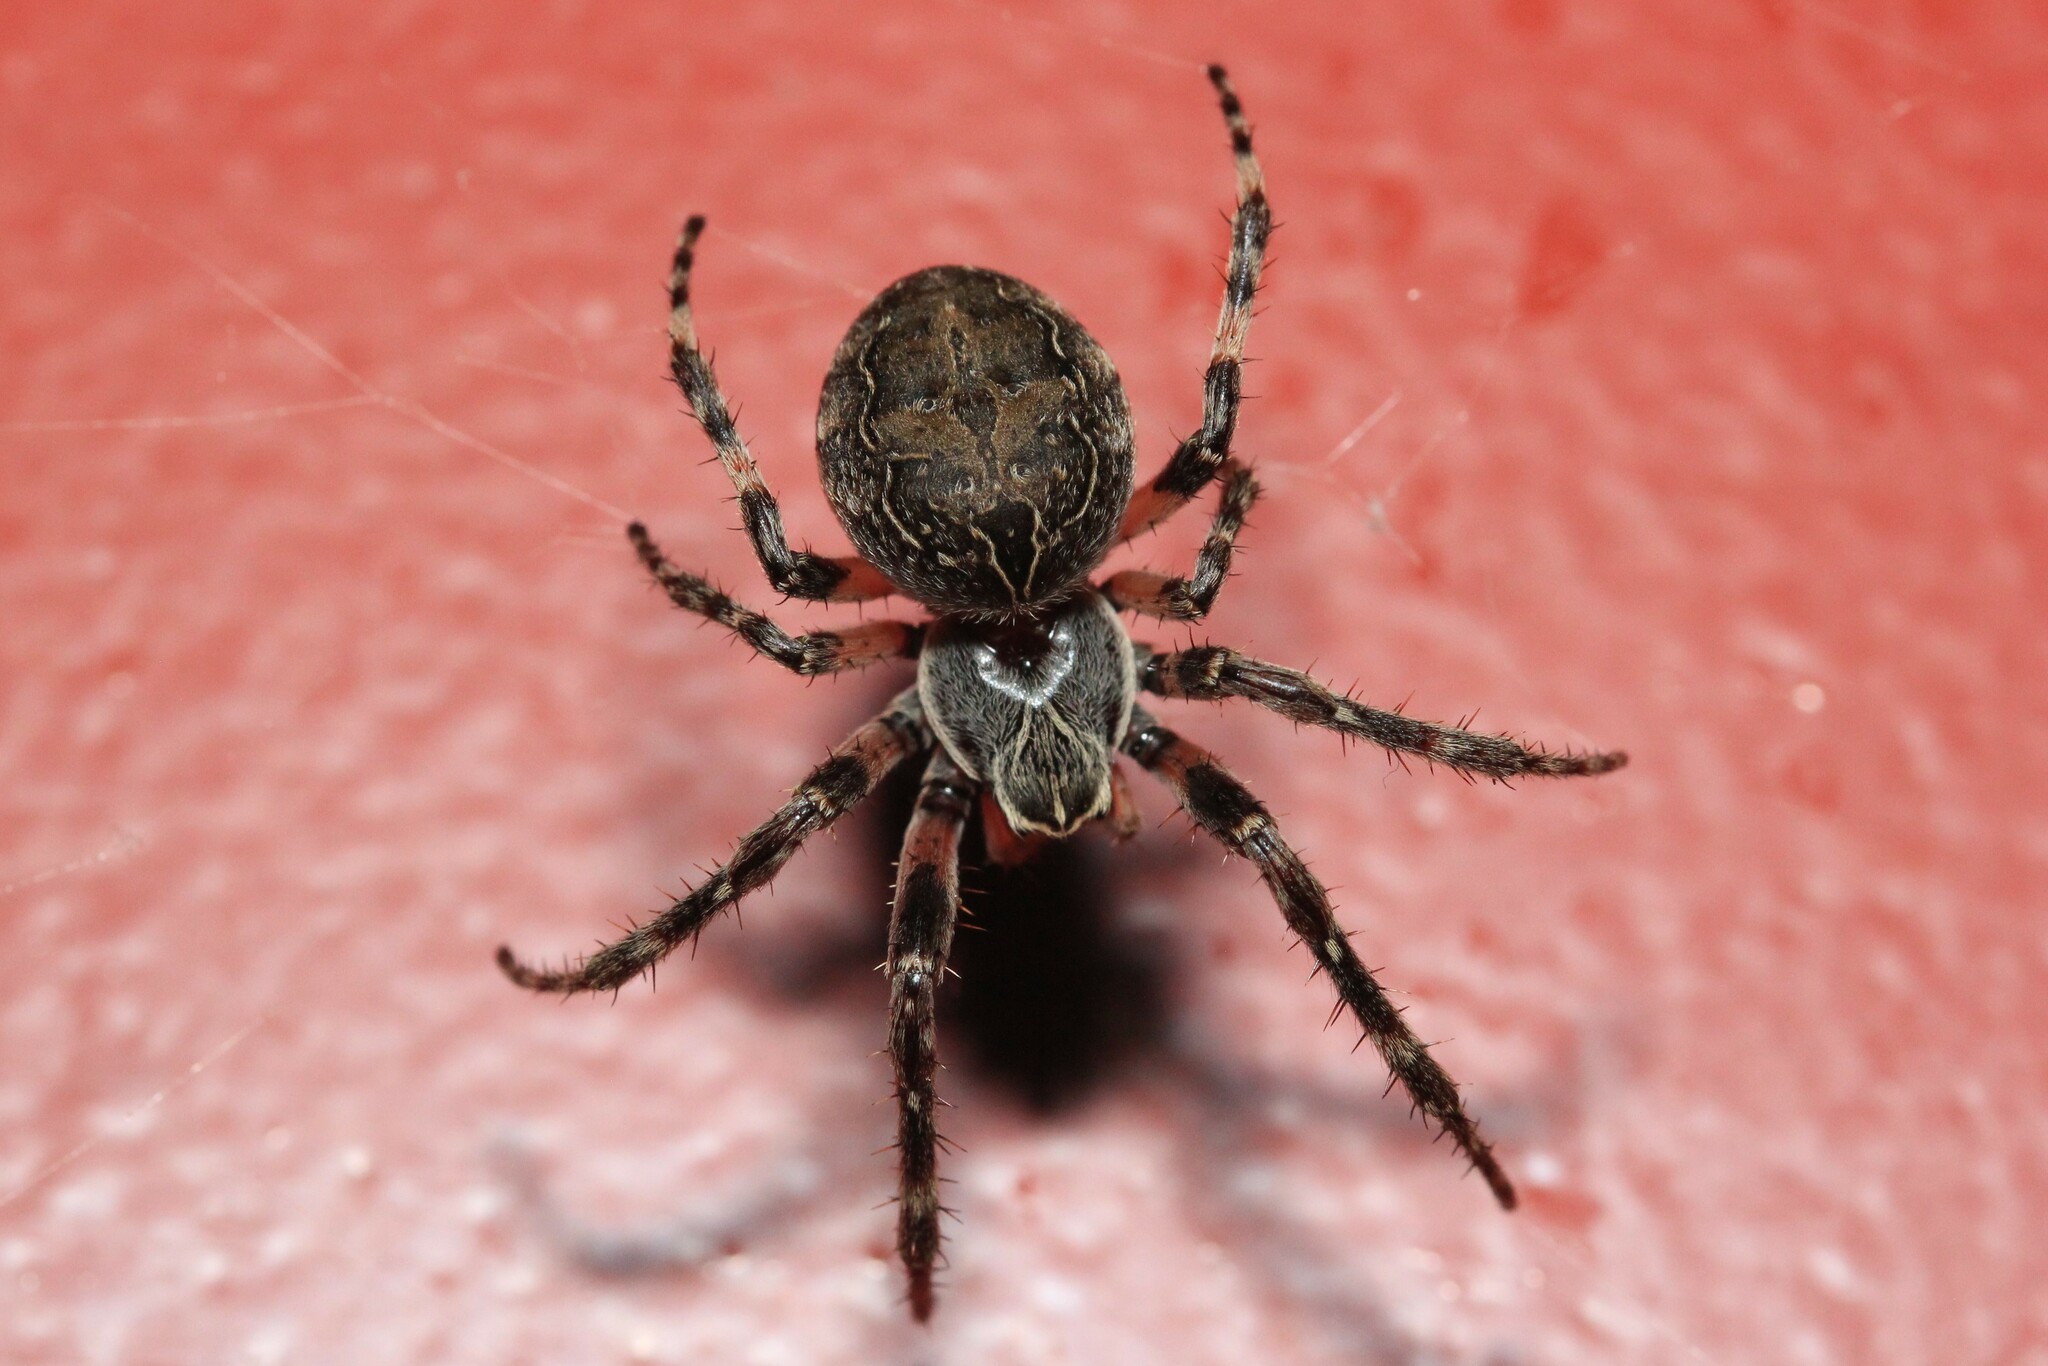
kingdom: Animalia
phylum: Arthropoda
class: Arachnida
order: Araneae
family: Araneidae
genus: Larinioides
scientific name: Larinioides sclopetarius
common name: Bridge orbweaver
